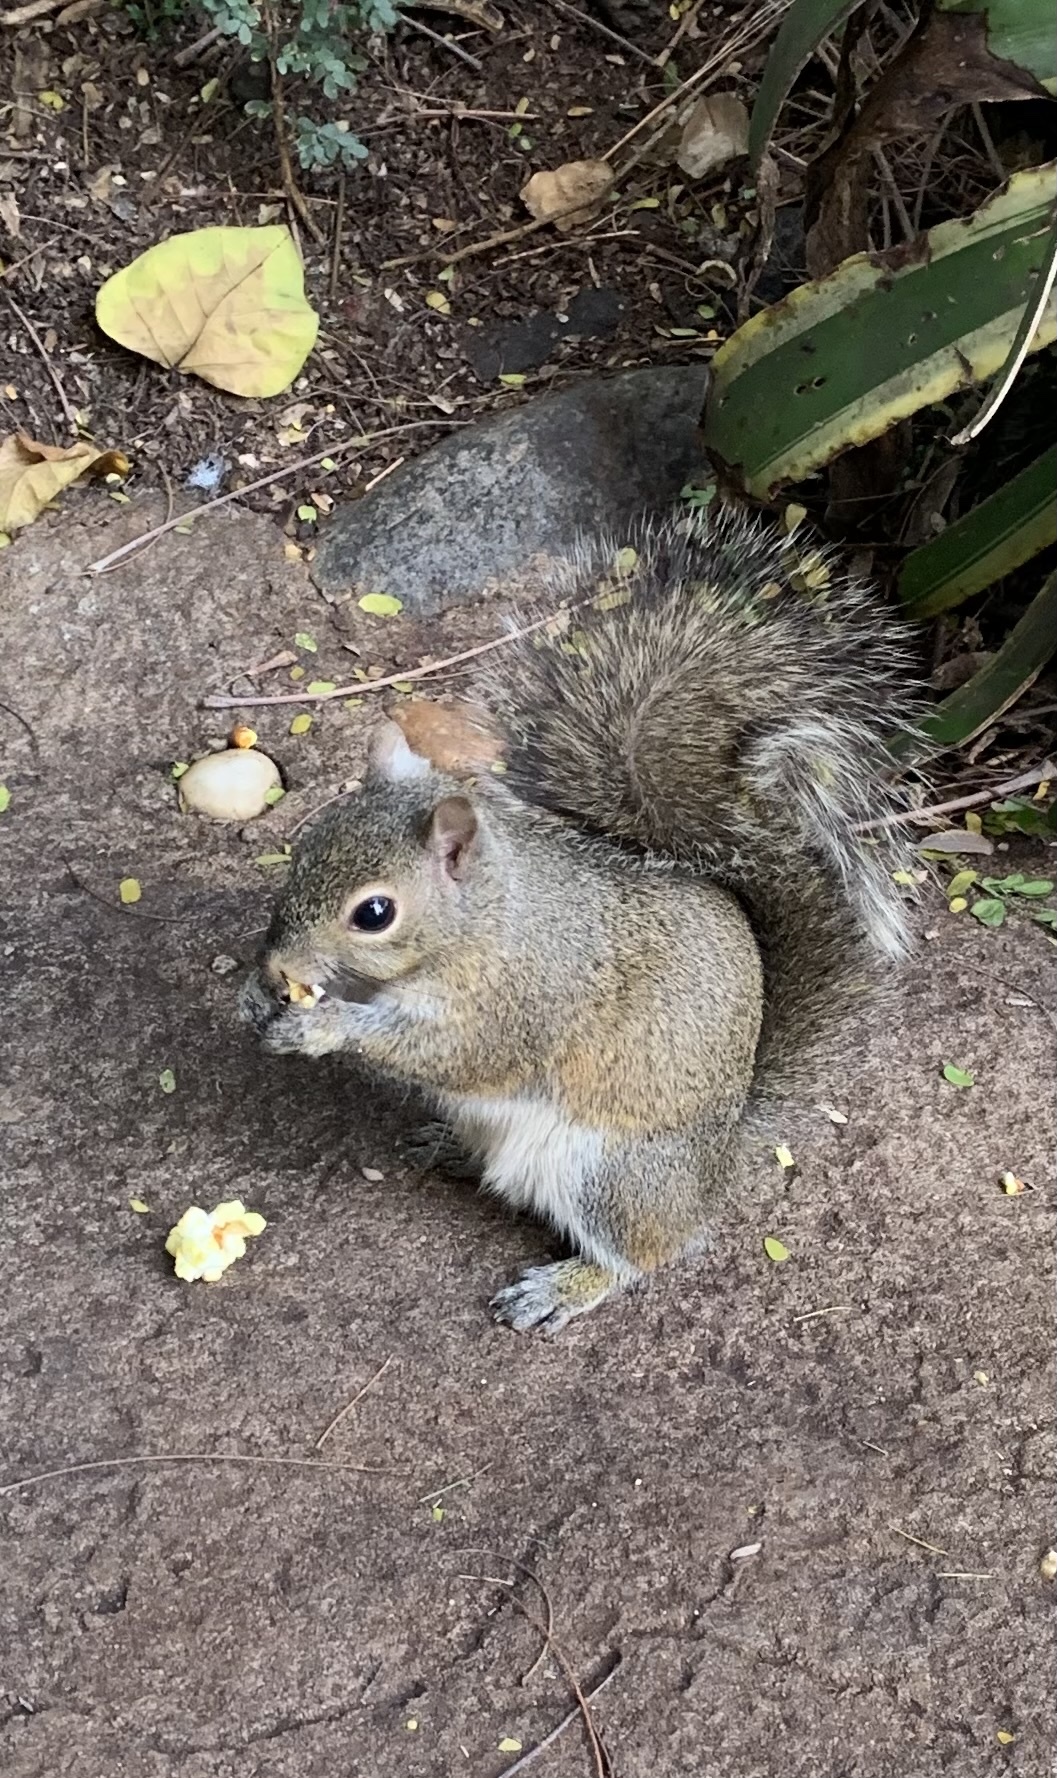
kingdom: Animalia
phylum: Chordata
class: Mammalia
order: Rodentia
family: Sciuridae
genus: Sciurus
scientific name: Sciurus carolinensis
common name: Eastern gray squirrel
